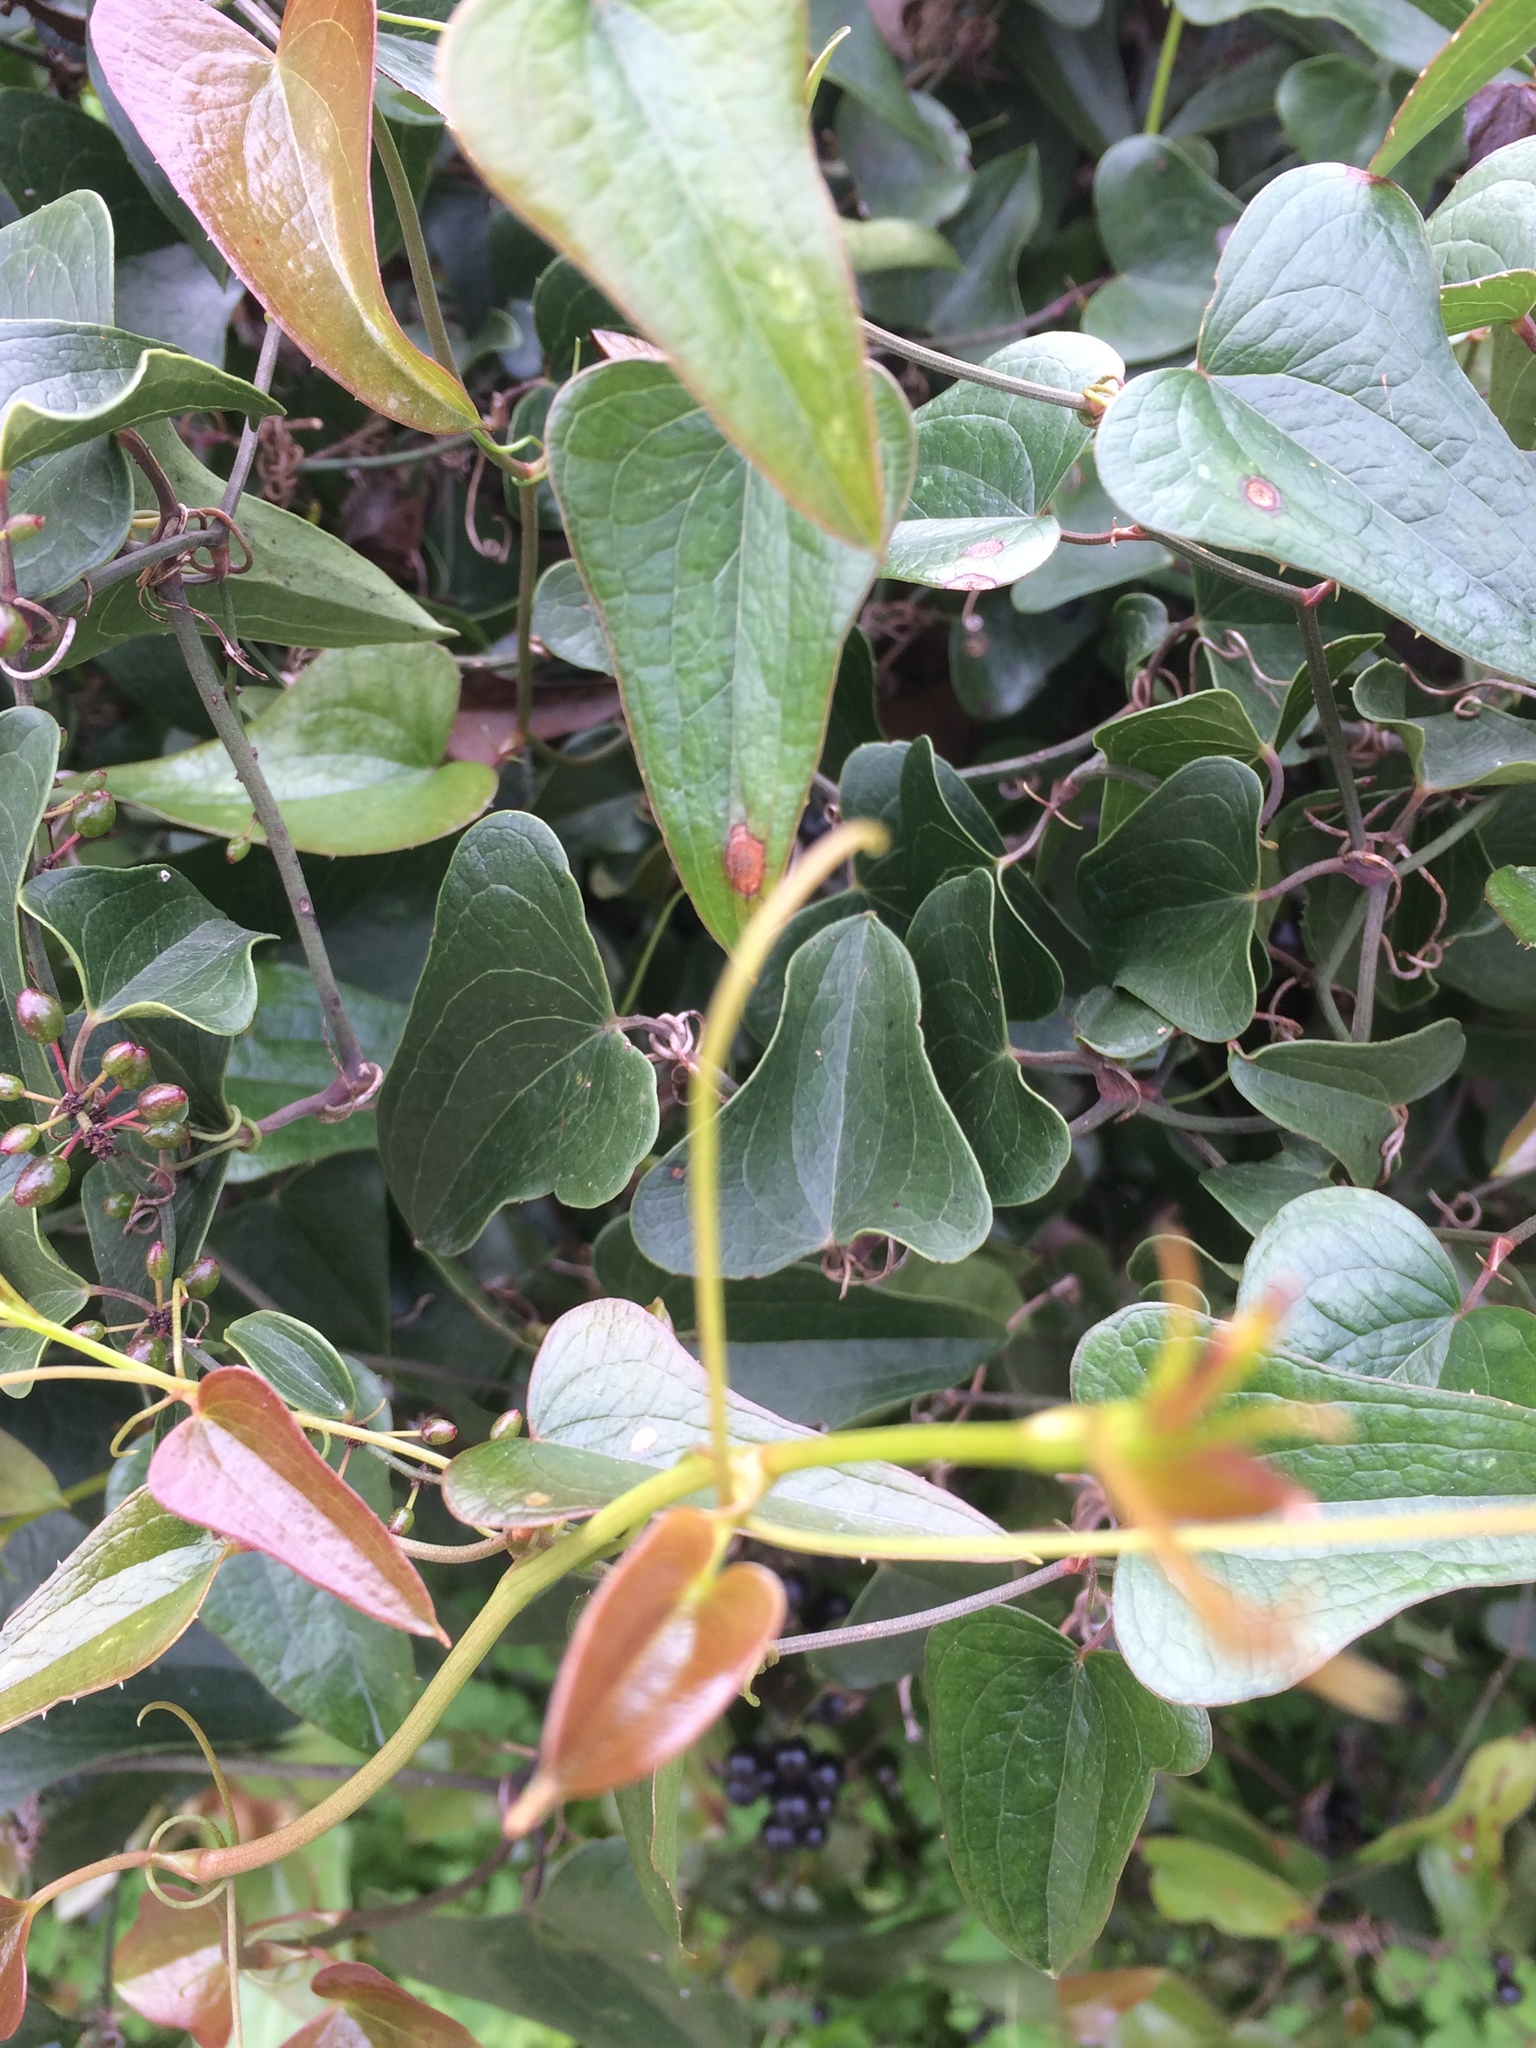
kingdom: Plantae
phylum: Tracheophyta
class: Liliopsida
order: Liliales
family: Smilacaceae
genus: Smilax
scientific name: Smilax aspera
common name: Common smilax
